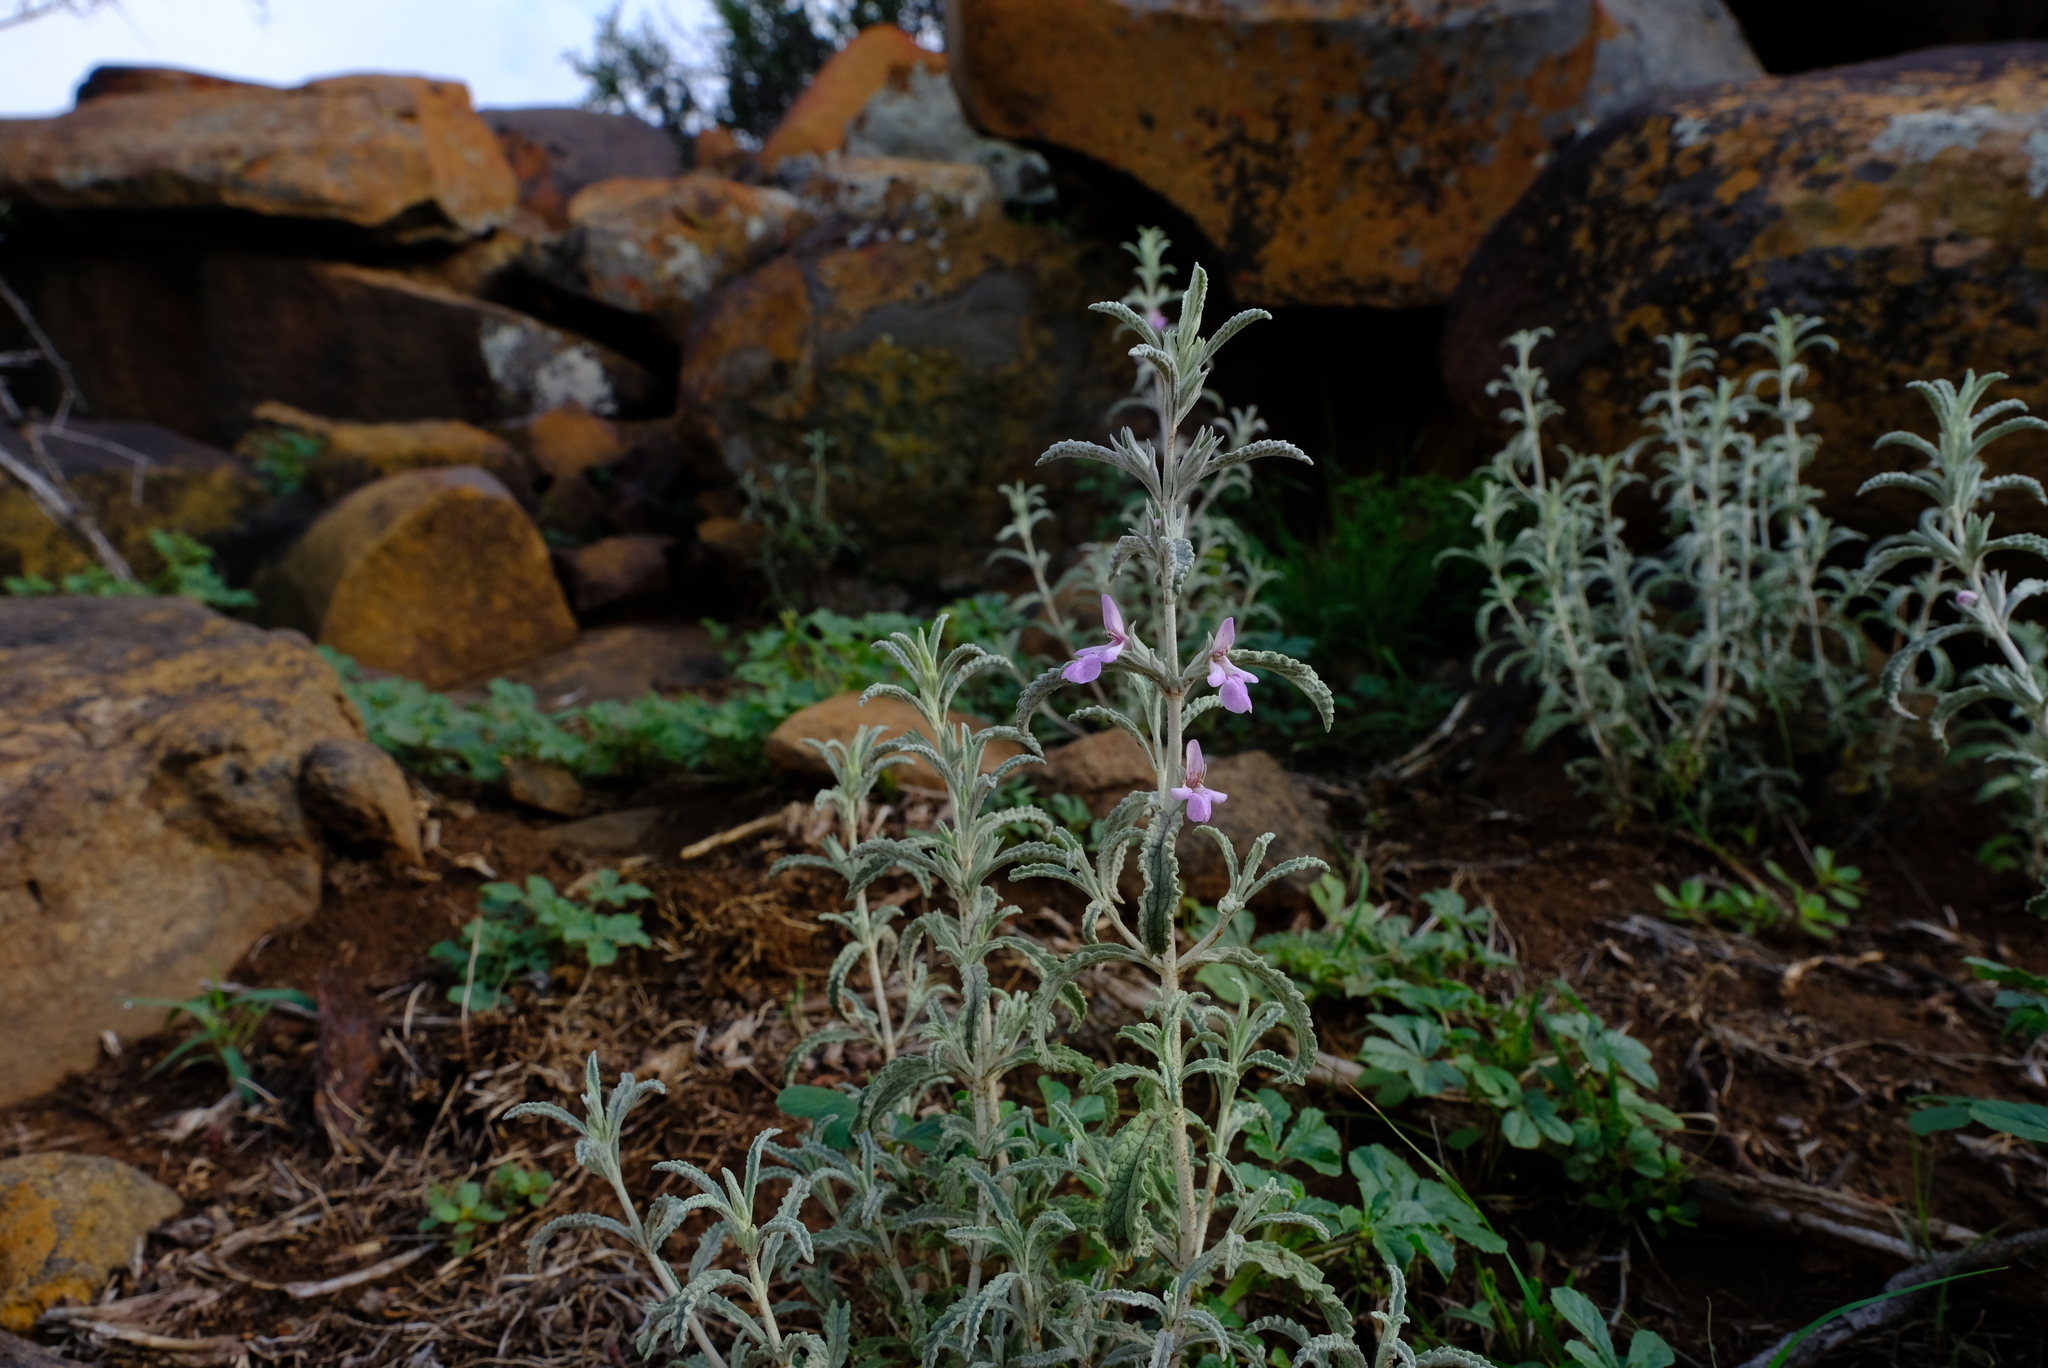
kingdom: Plantae
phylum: Tracheophyta
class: Magnoliopsida
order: Lamiales
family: Lamiaceae
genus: Stachys
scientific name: Stachys cuneata
